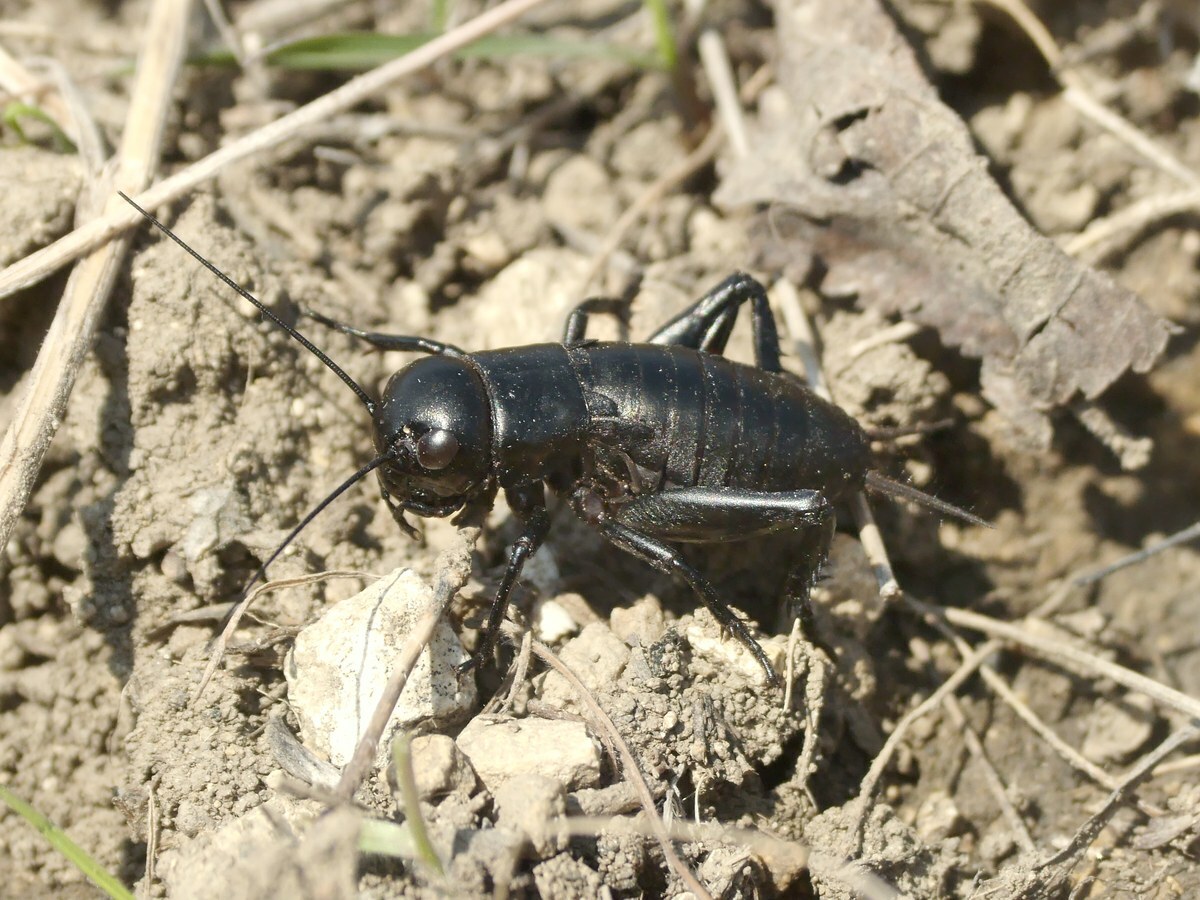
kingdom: Animalia
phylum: Arthropoda
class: Insecta
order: Orthoptera
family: Gryllidae
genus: Gryllus
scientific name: Gryllus campestris
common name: Field cricket
